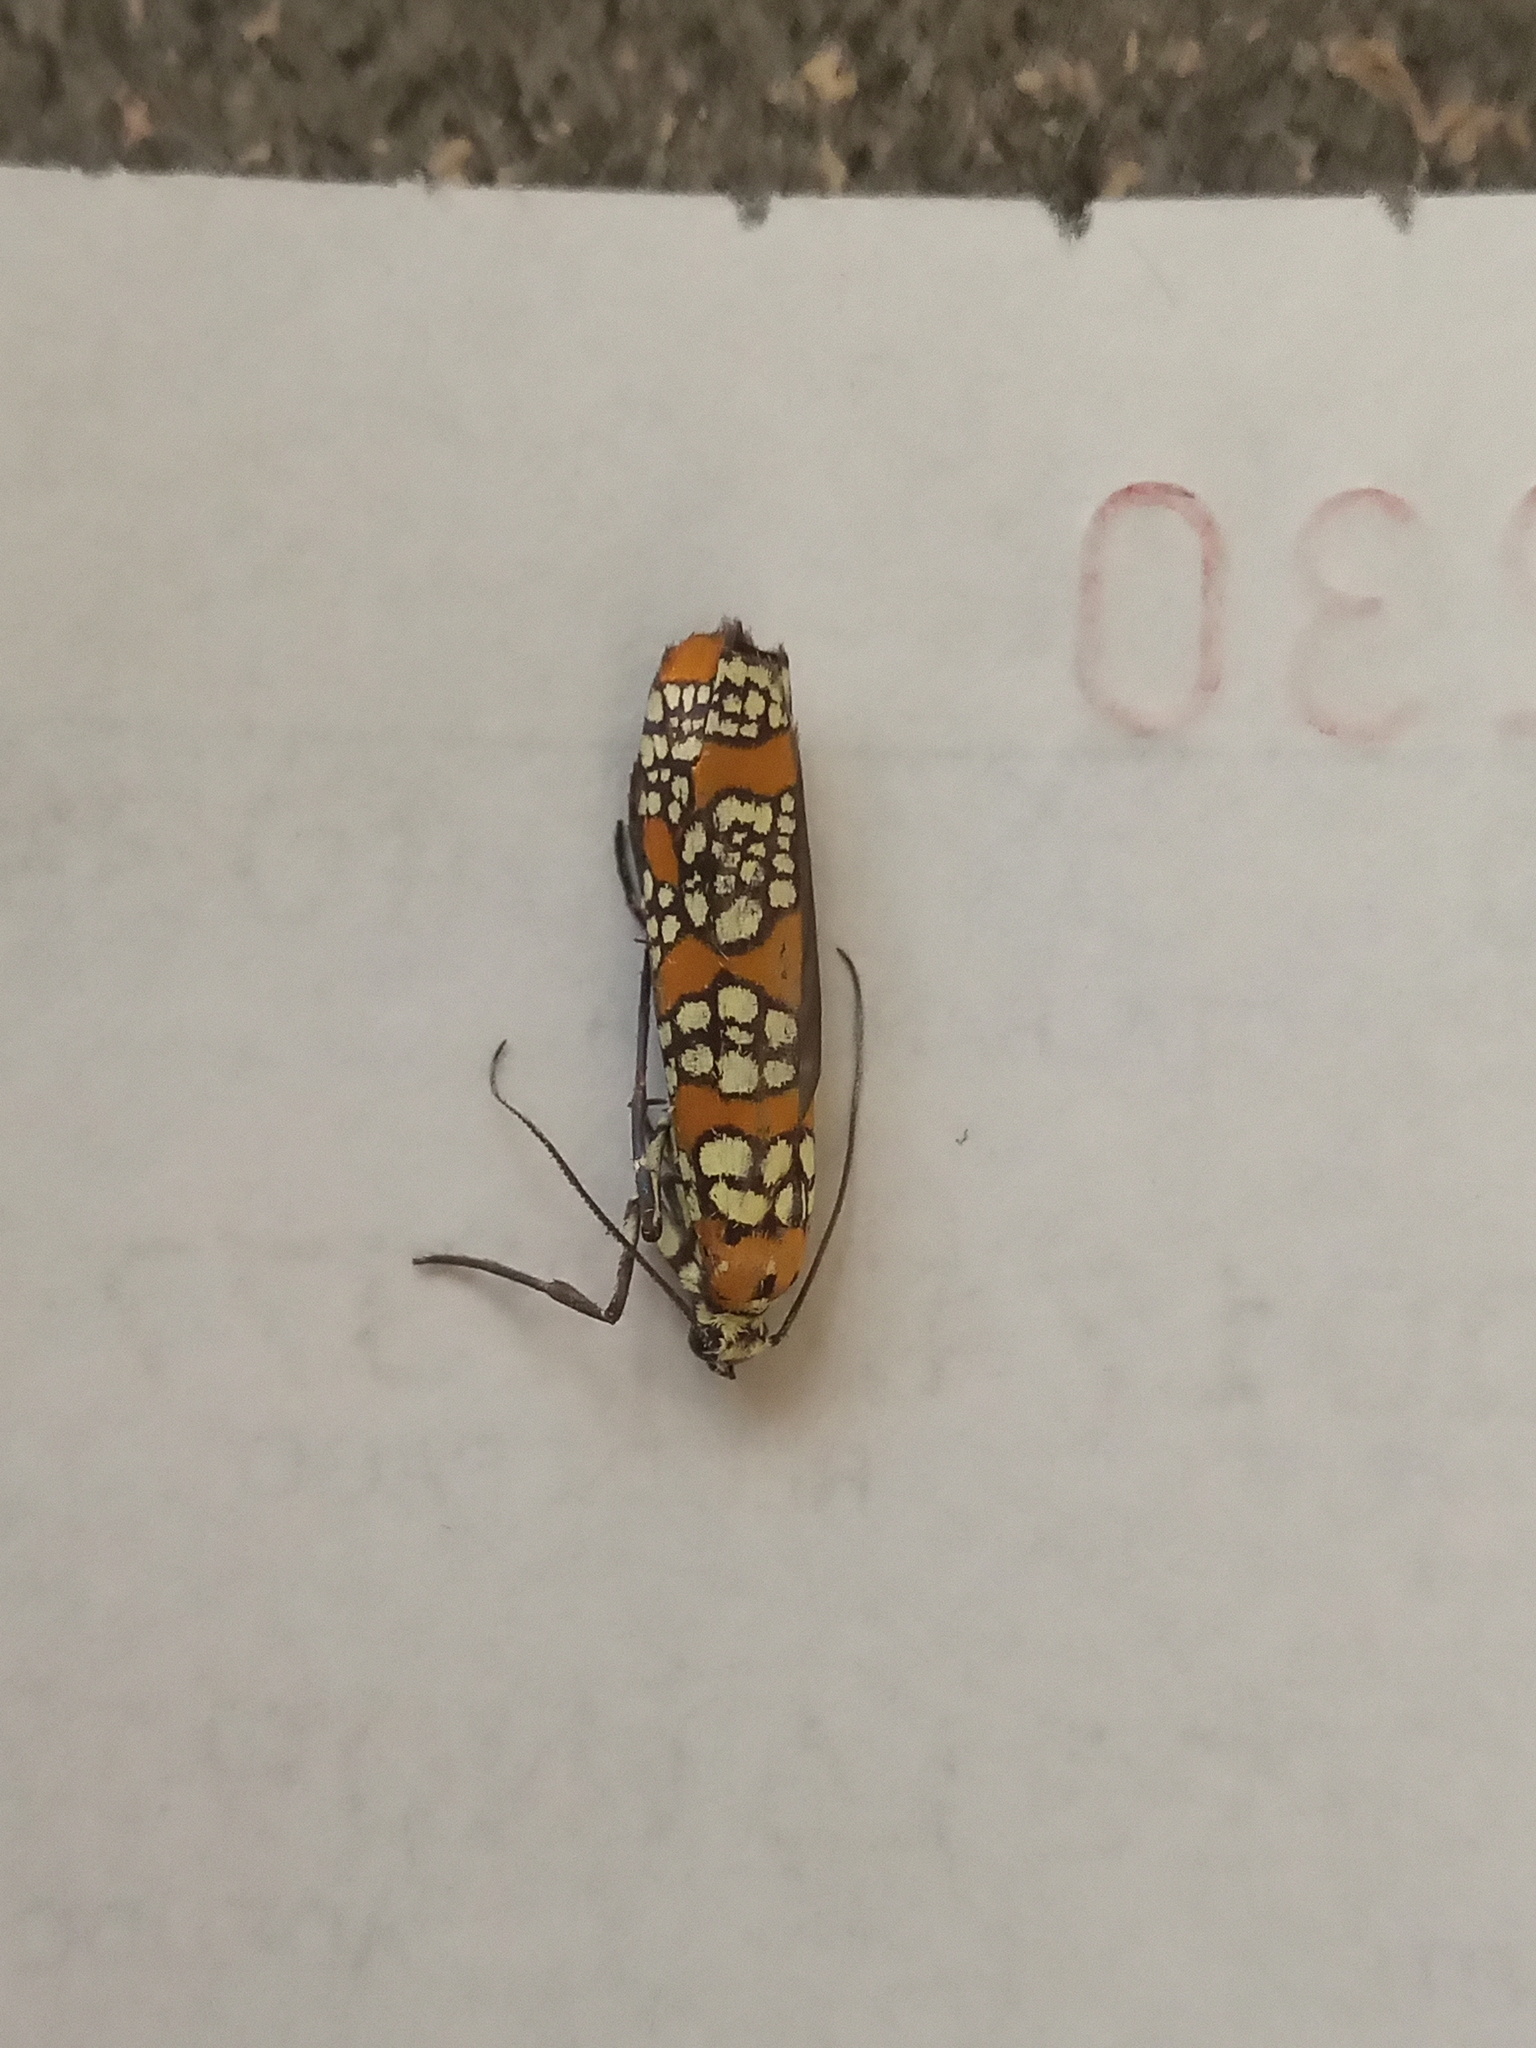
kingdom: Animalia
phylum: Arthropoda
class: Insecta
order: Lepidoptera
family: Attevidae
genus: Atteva
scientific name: Atteva punctella
